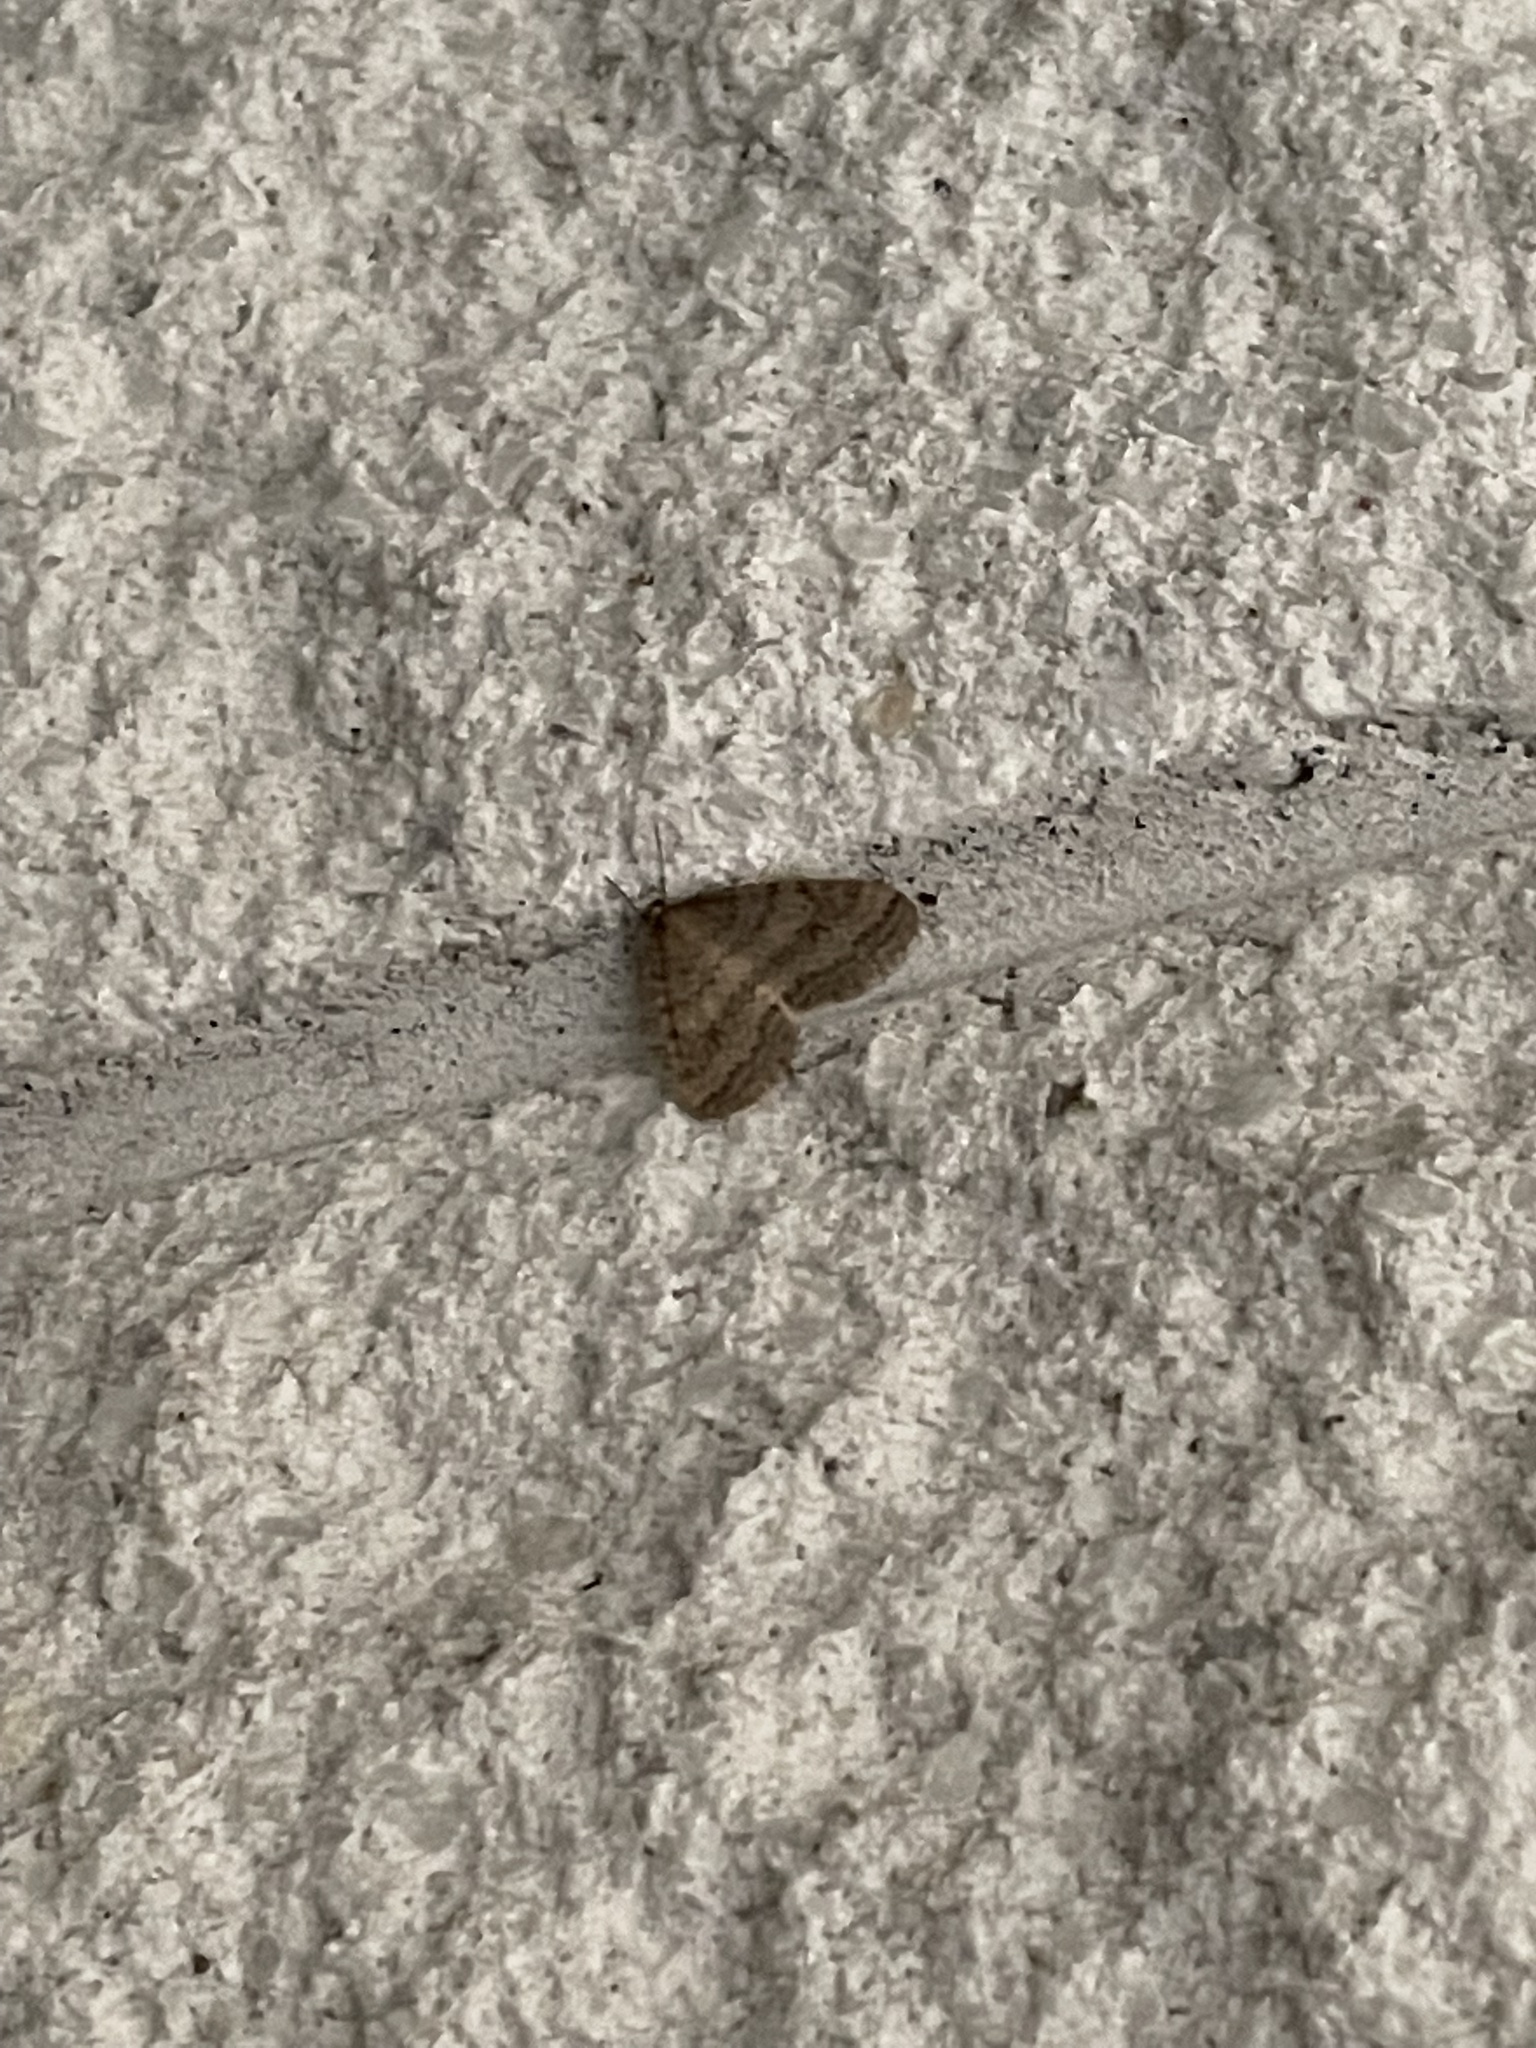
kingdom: Animalia
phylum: Arthropoda
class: Insecta
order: Lepidoptera
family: Geometridae
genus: Operophtera
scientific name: Operophtera bruceata
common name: Bruce spanworm
